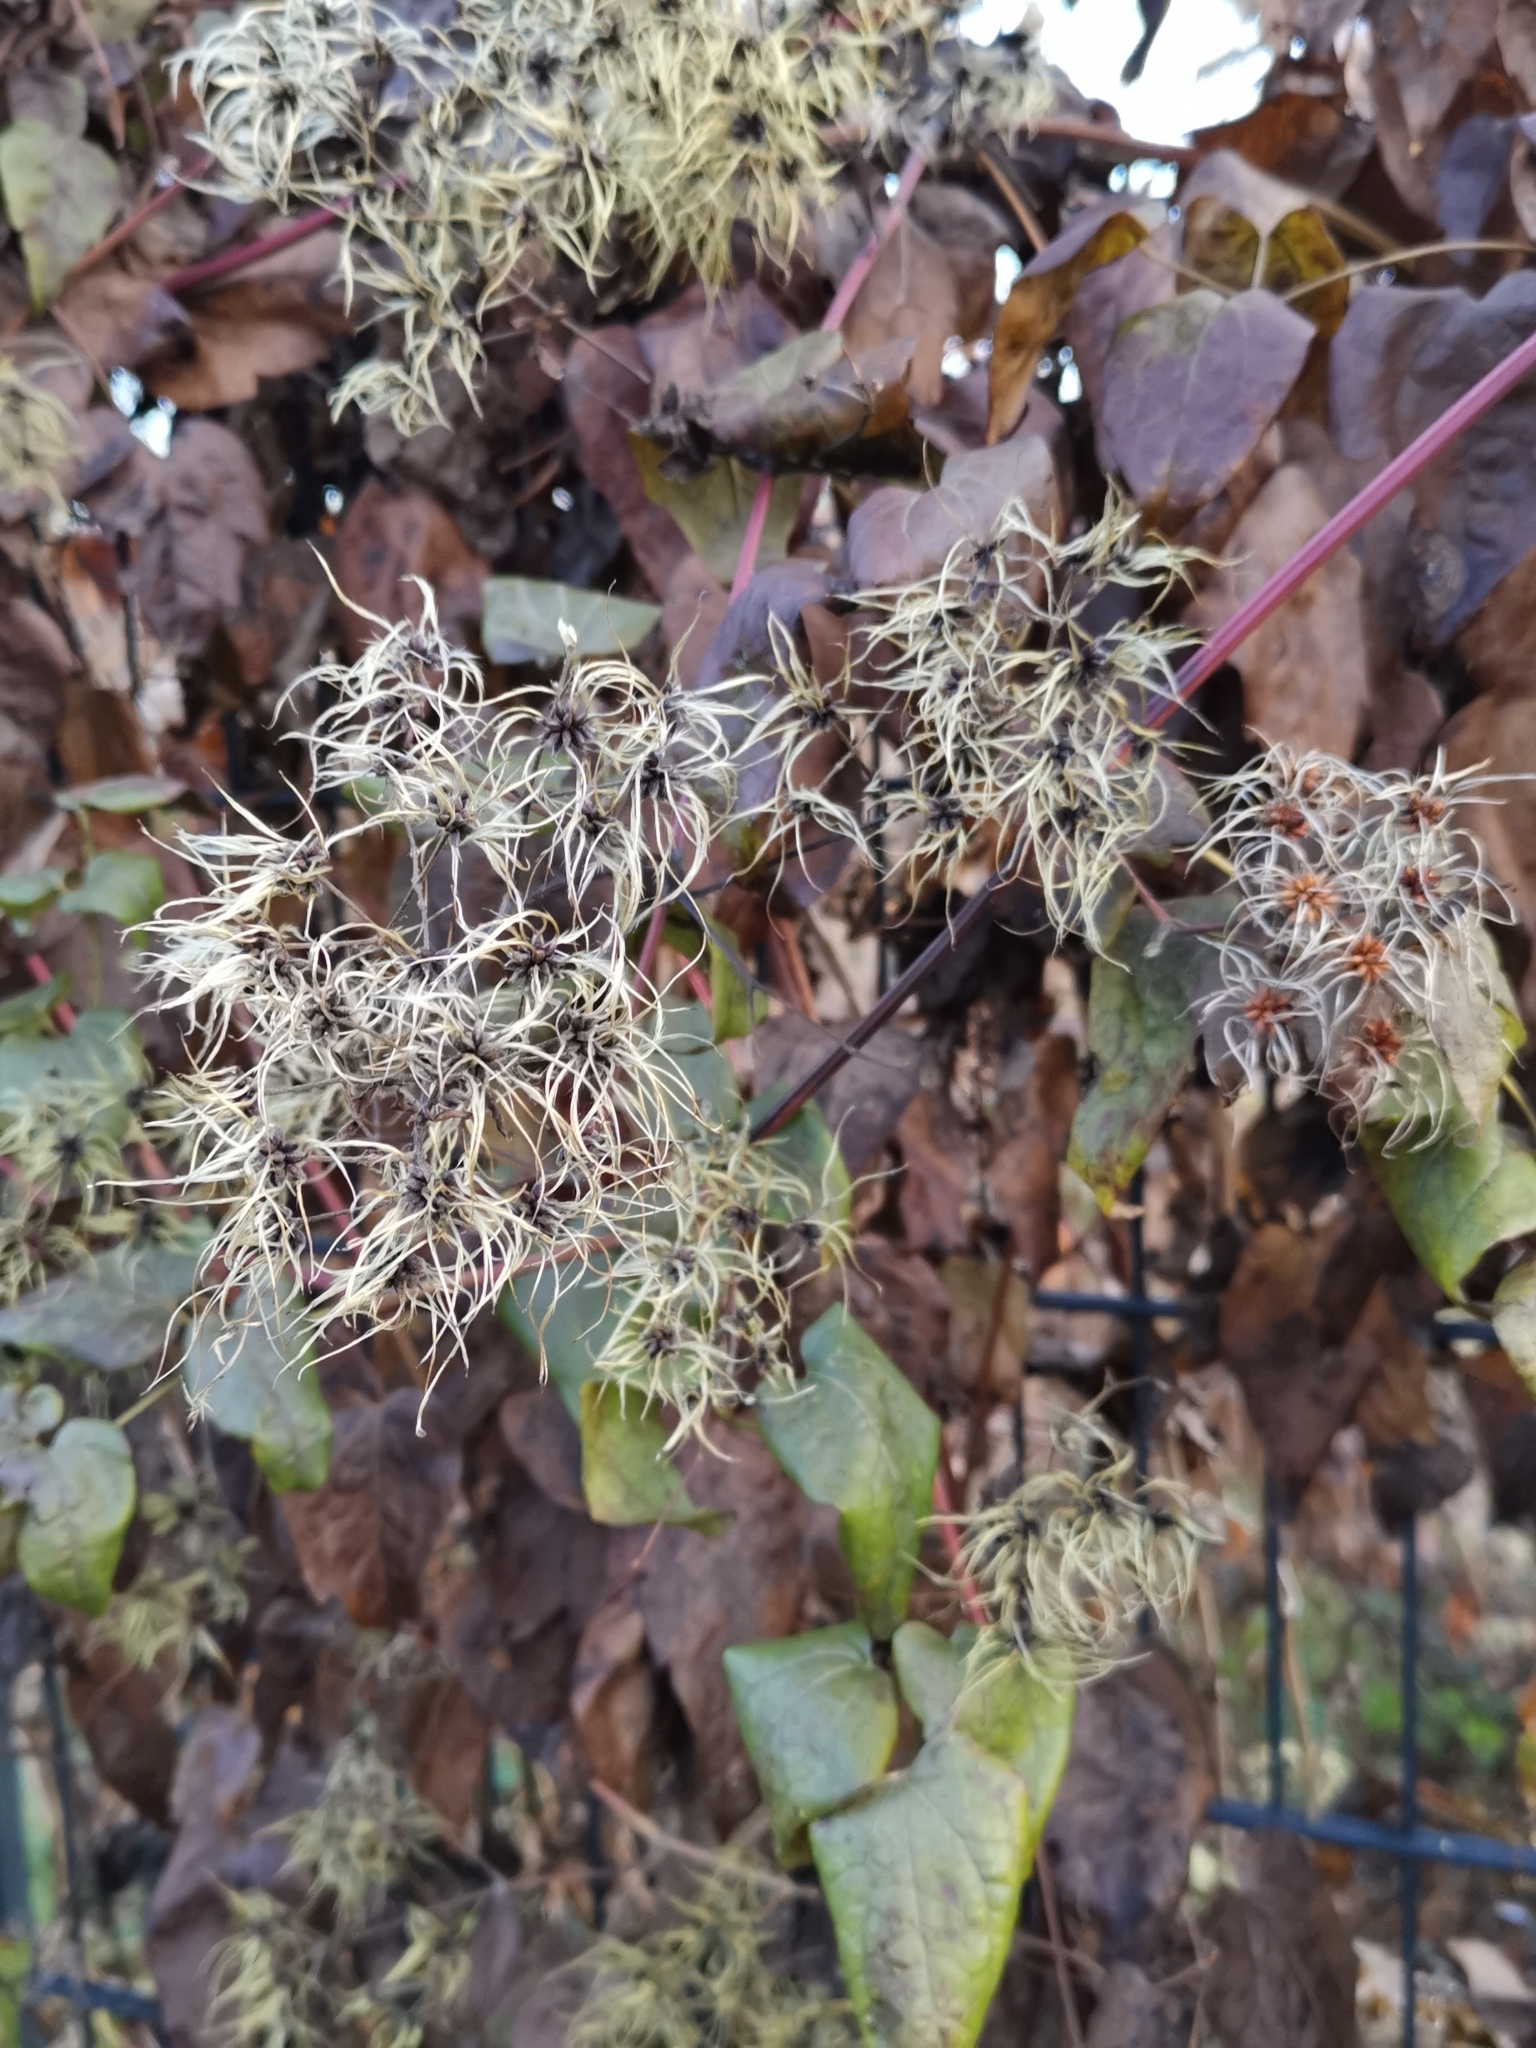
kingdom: Plantae
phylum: Tracheophyta
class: Magnoliopsida
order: Ranunculales
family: Ranunculaceae
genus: Clematis
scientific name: Clematis vitalba
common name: Evergreen clematis
